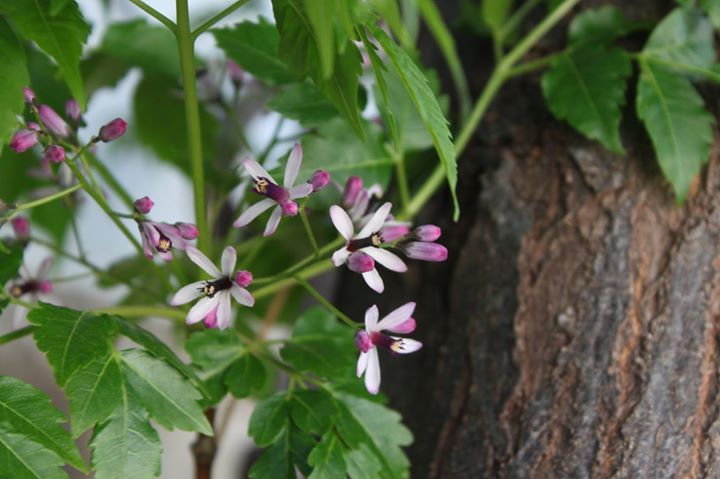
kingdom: Plantae
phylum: Tracheophyta
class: Magnoliopsida
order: Sapindales
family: Meliaceae
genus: Melia
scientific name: Melia azedarach
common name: Chinaberrytree
